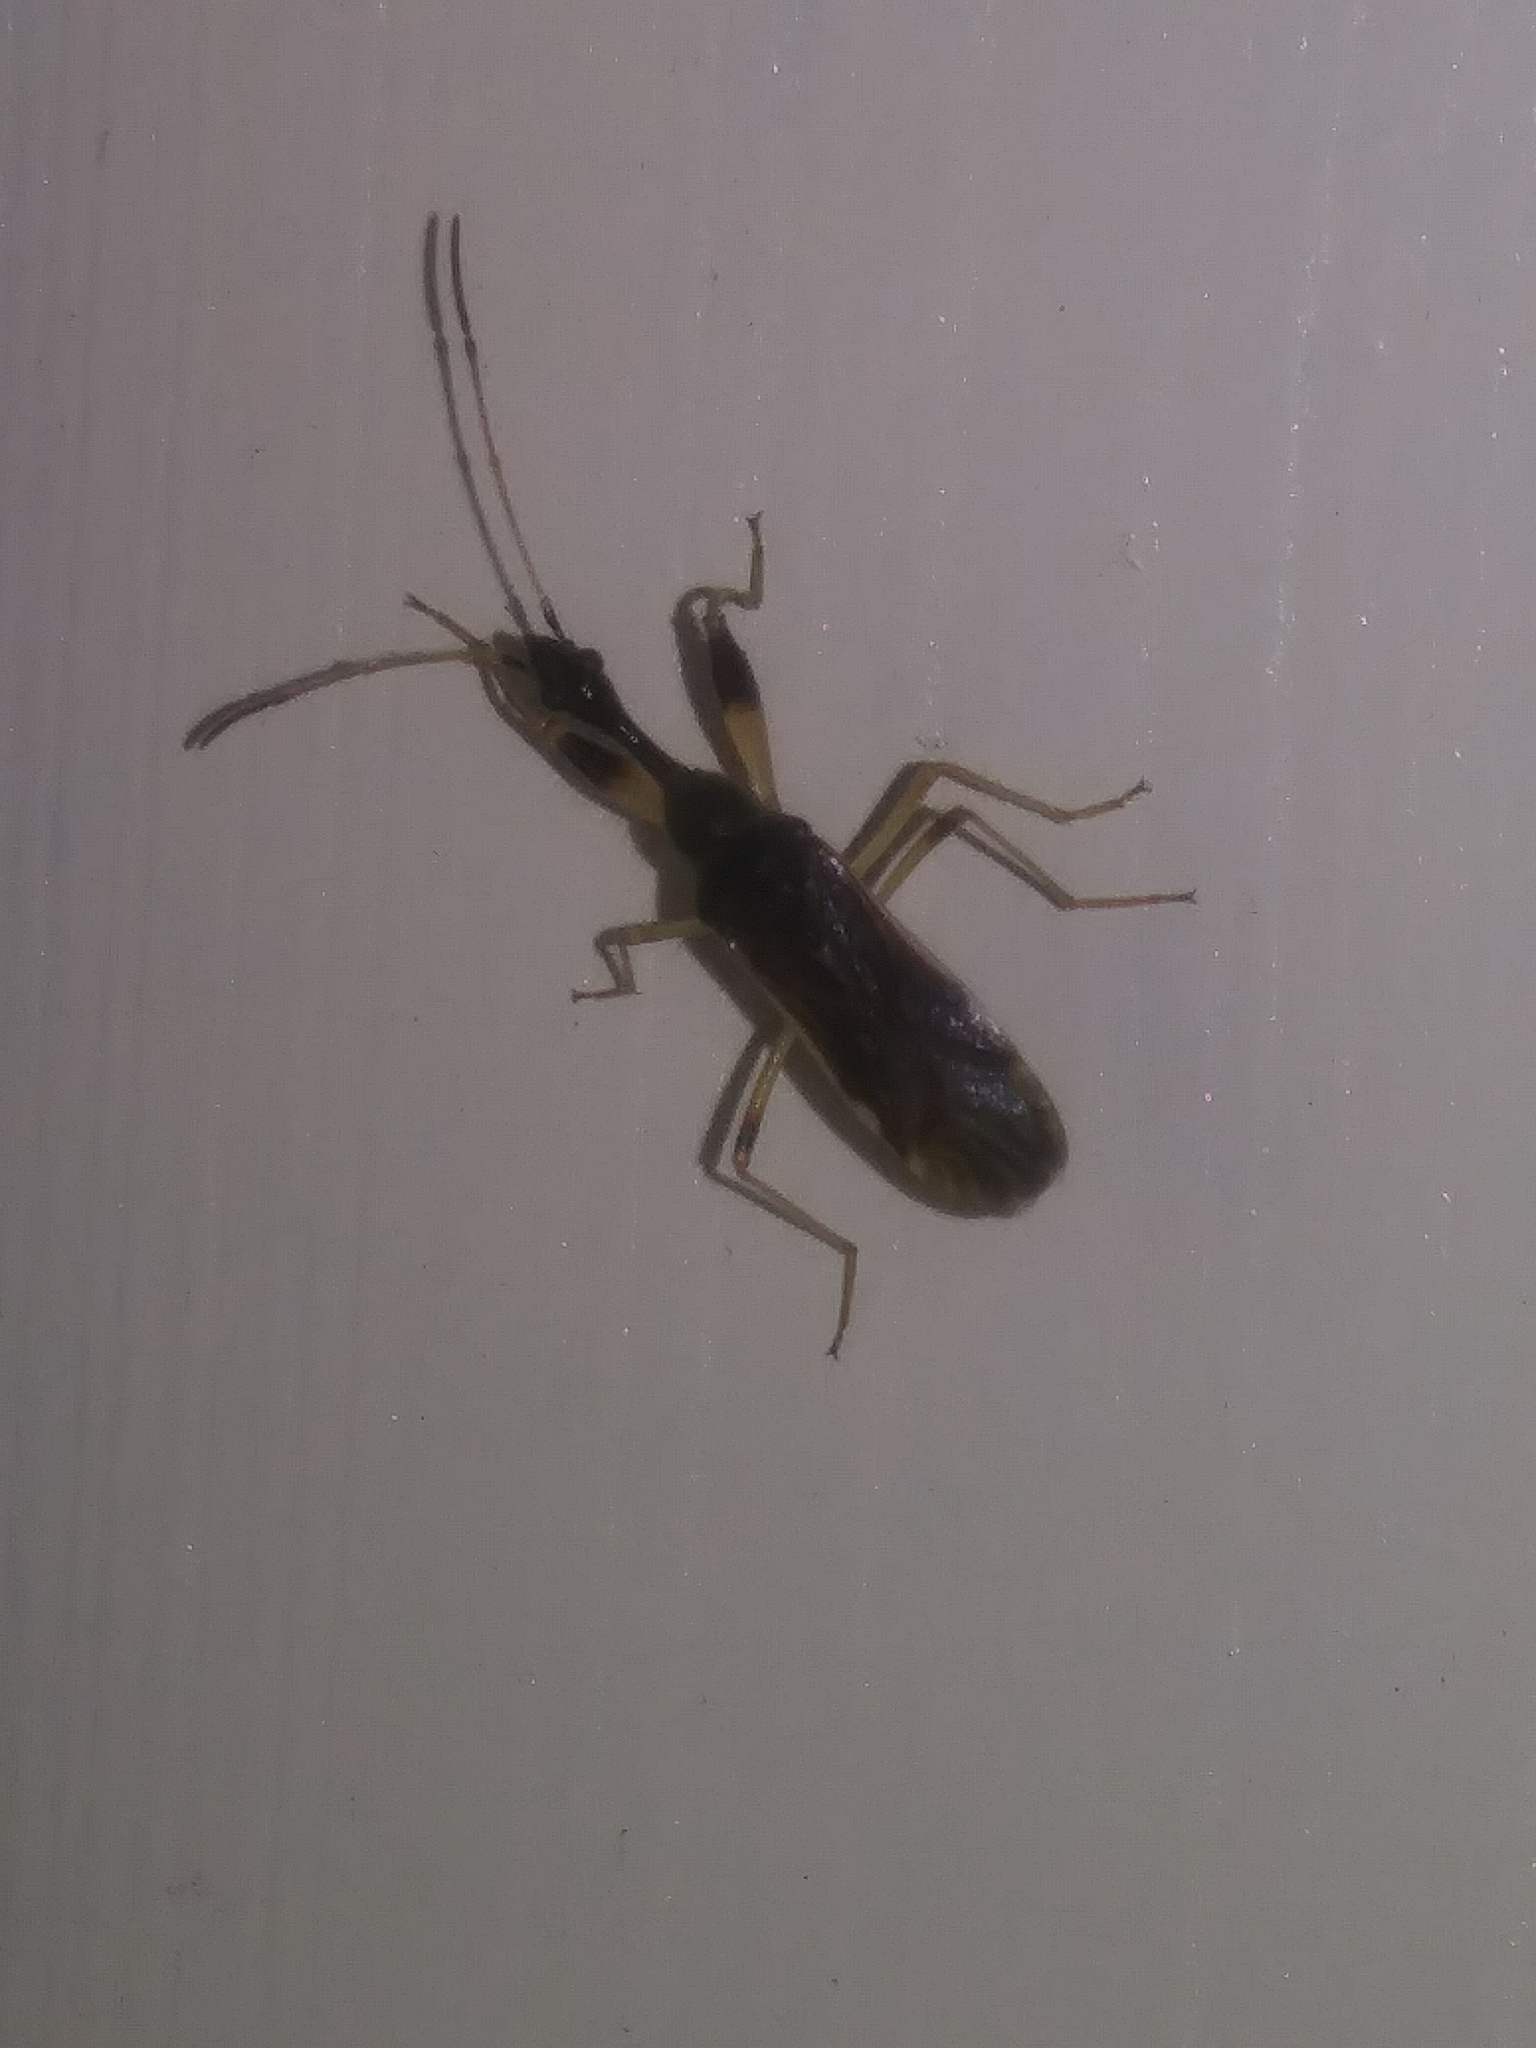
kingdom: Animalia
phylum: Arthropoda
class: Insecta
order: Hemiptera
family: Rhyparochromidae
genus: Myodocha
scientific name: Myodocha serripes
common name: Long-necked seed bug
